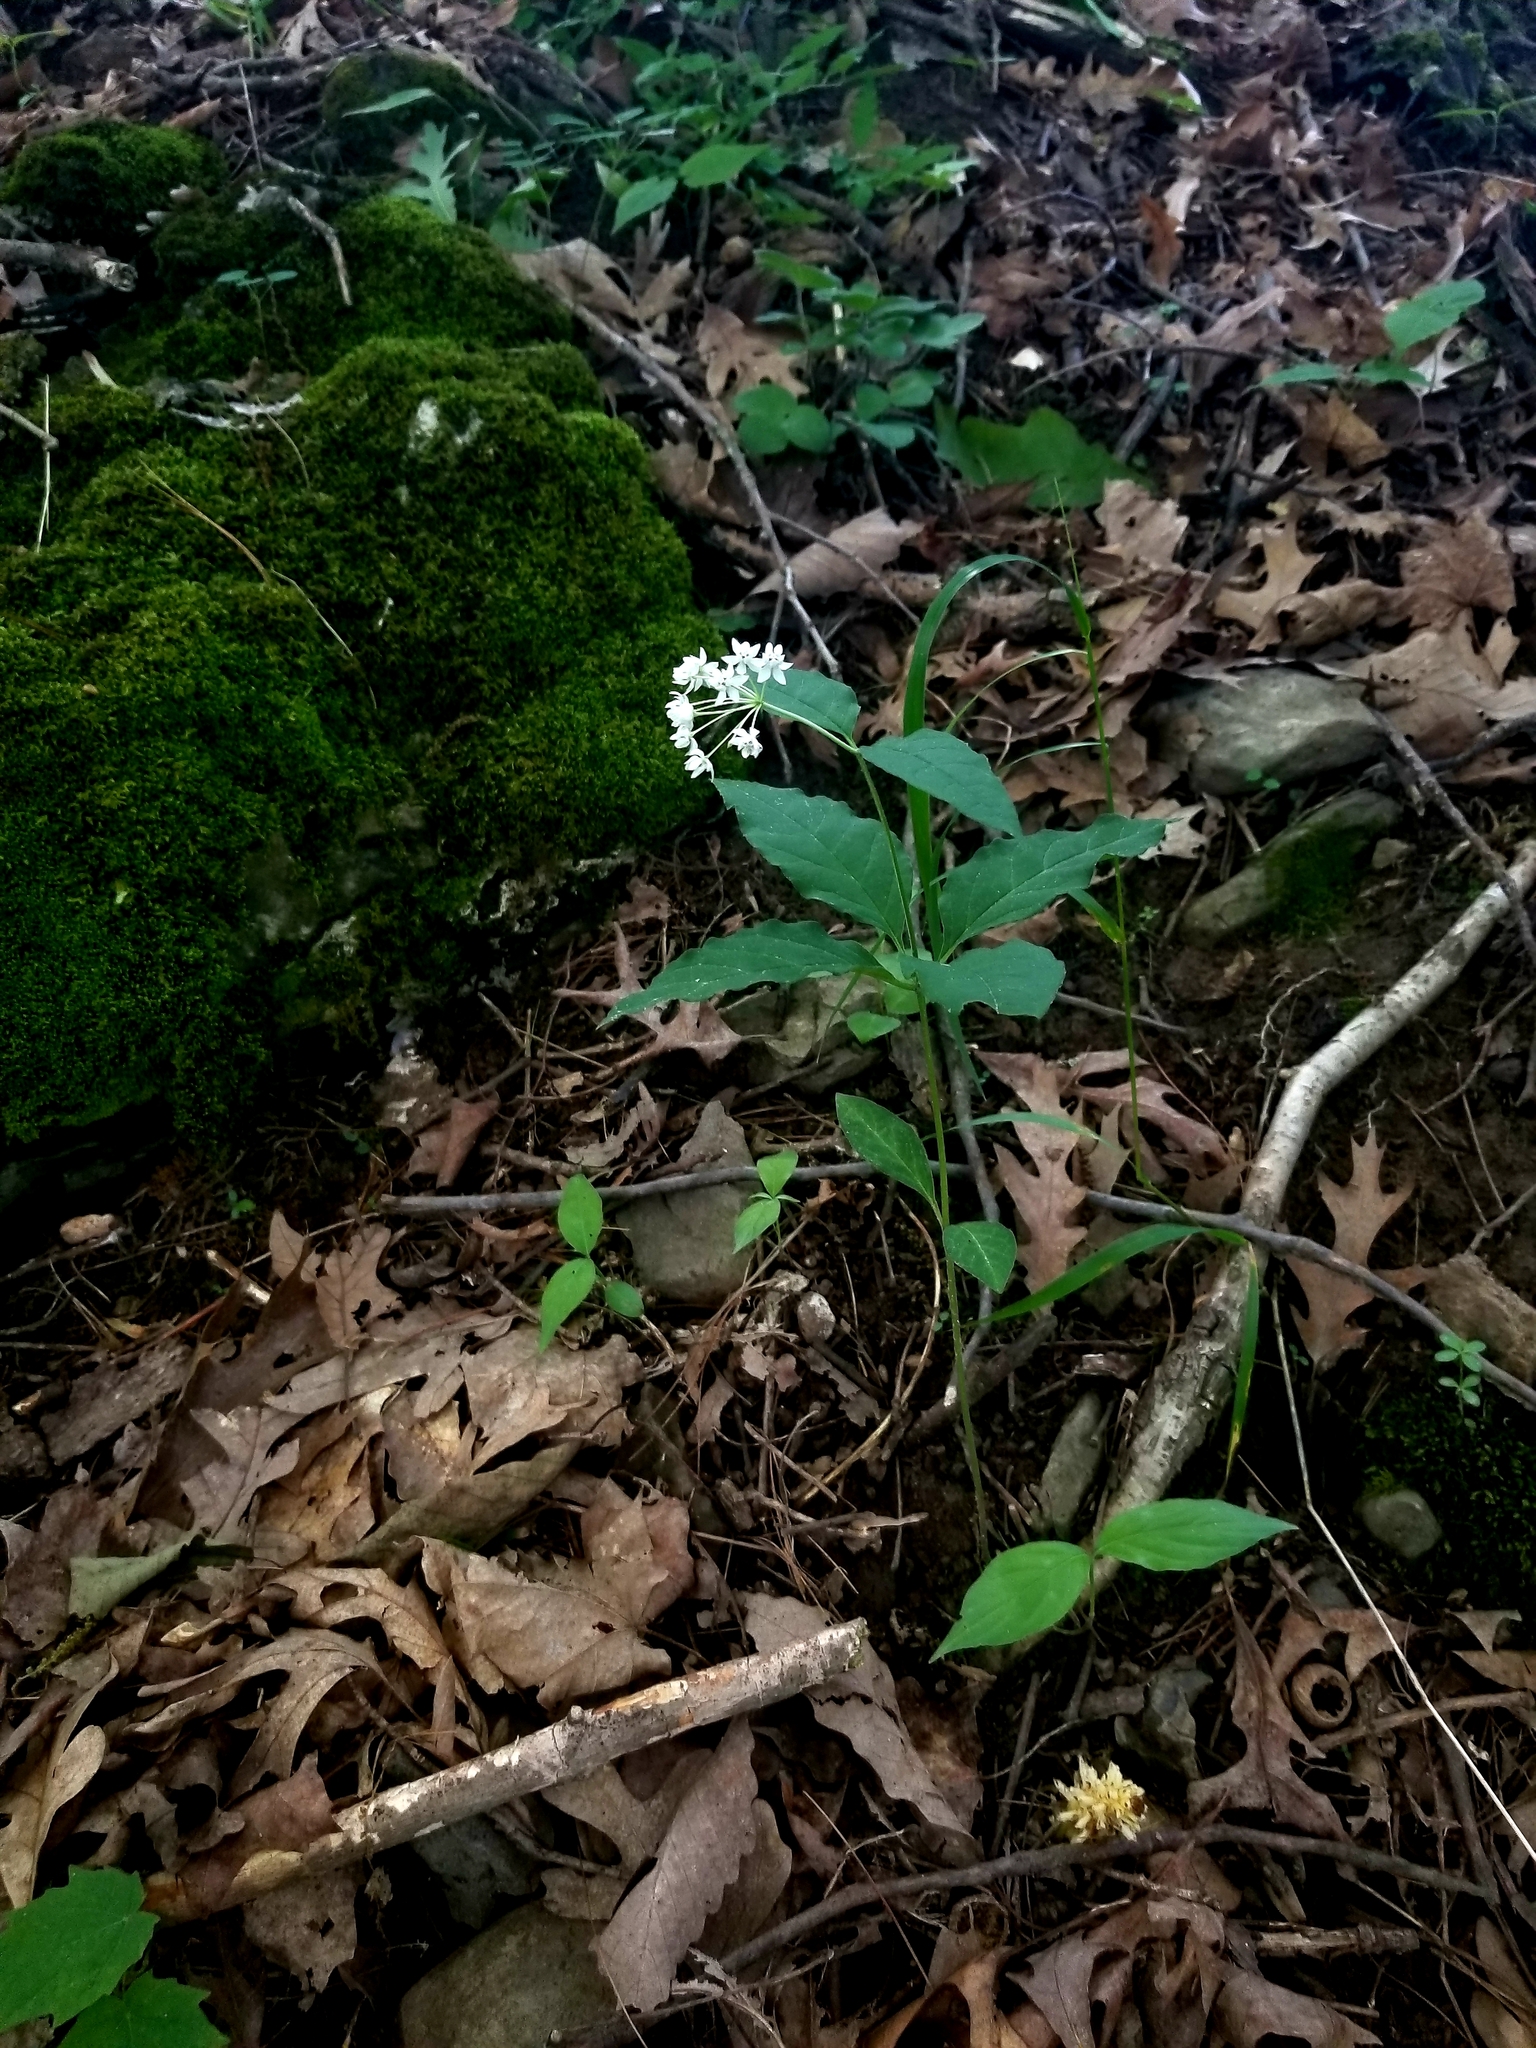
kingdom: Plantae
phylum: Tracheophyta
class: Magnoliopsida
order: Gentianales
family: Apocynaceae
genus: Asclepias
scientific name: Asclepias quadrifolia
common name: Whorled milkweed
